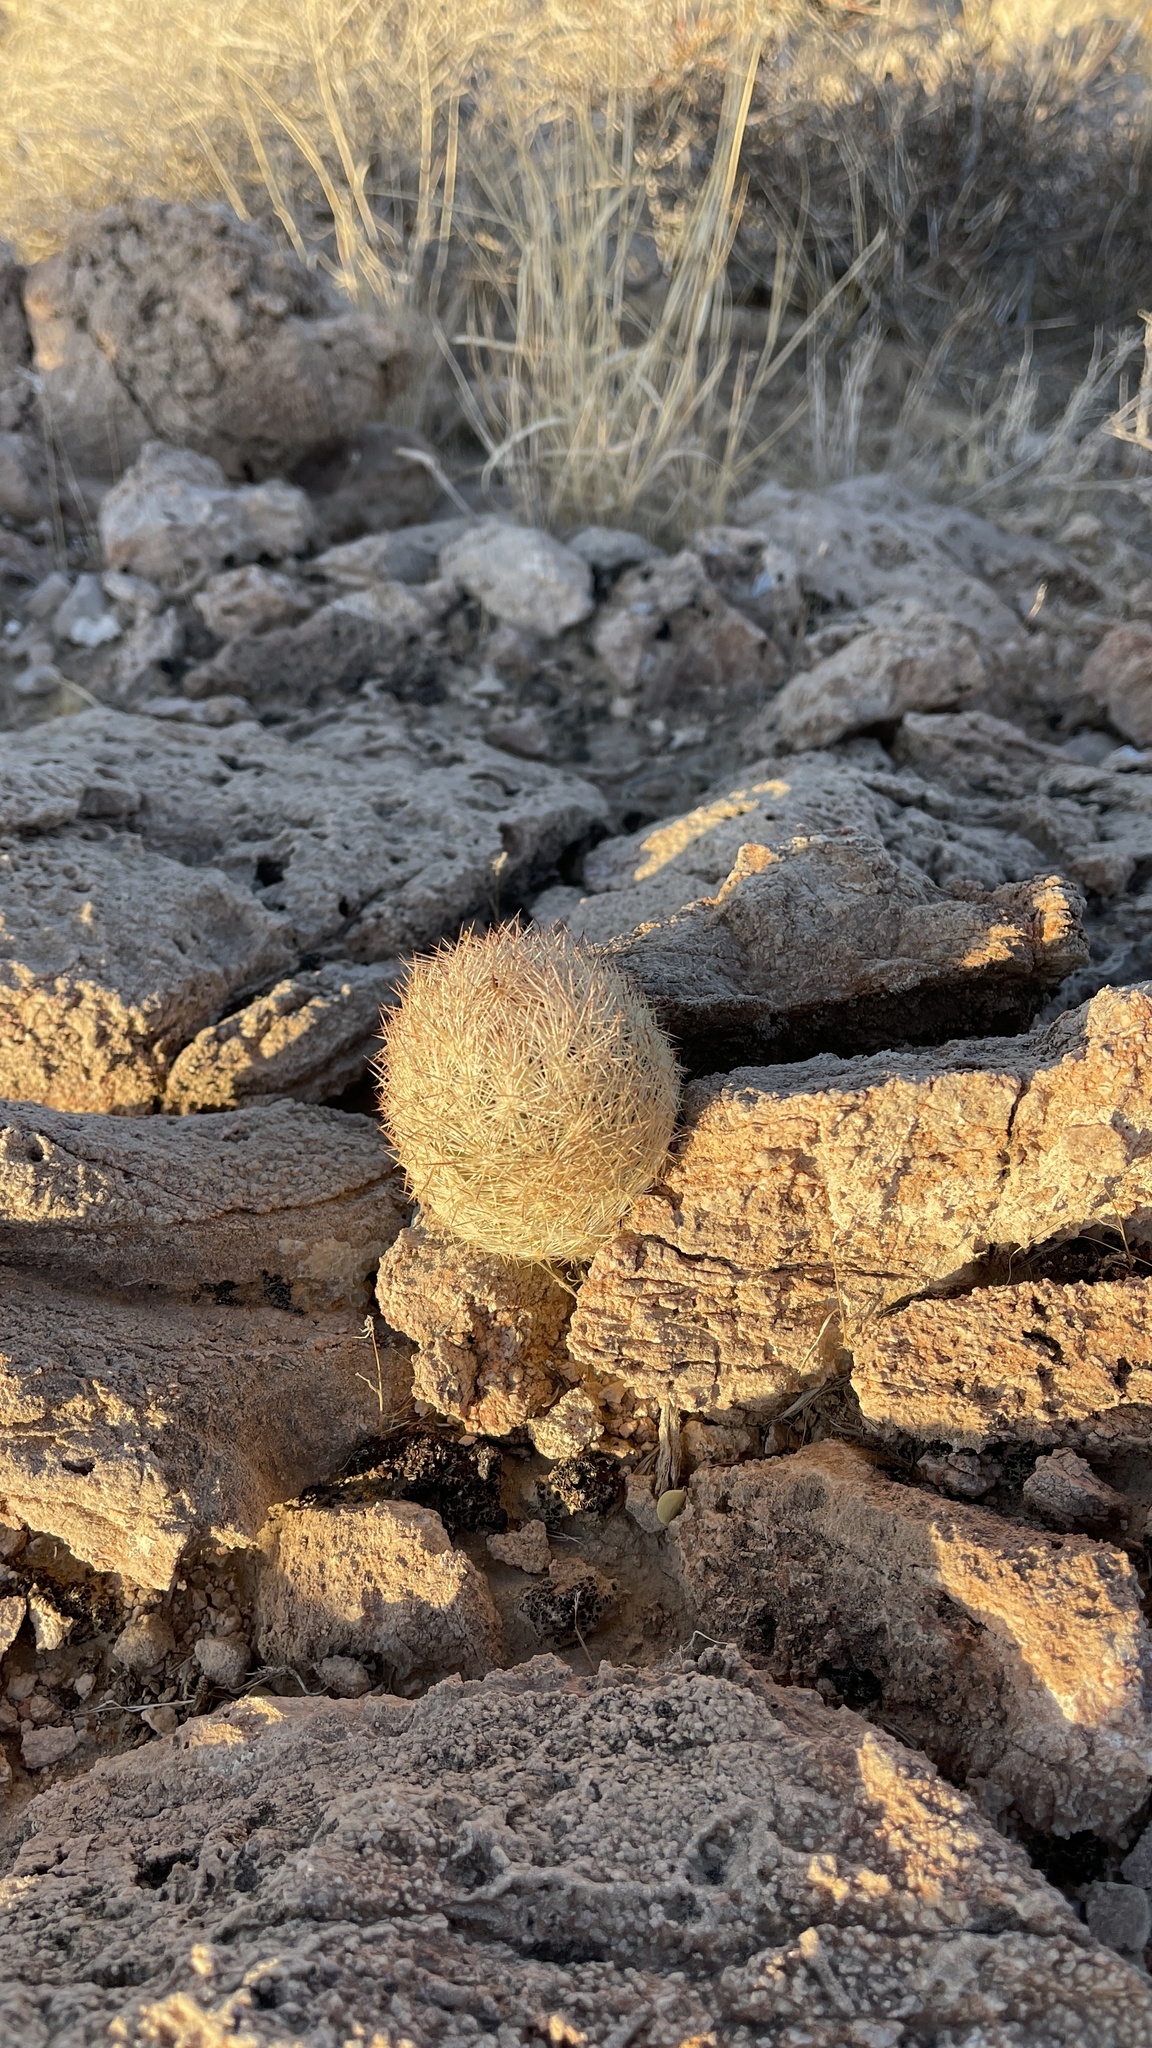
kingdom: Plantae
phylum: Tracheophyta
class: Magnoliopsida
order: Caryophyllales
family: Cactaceae
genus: Pelecyphora
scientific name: Pelecyphora dasyacantha
